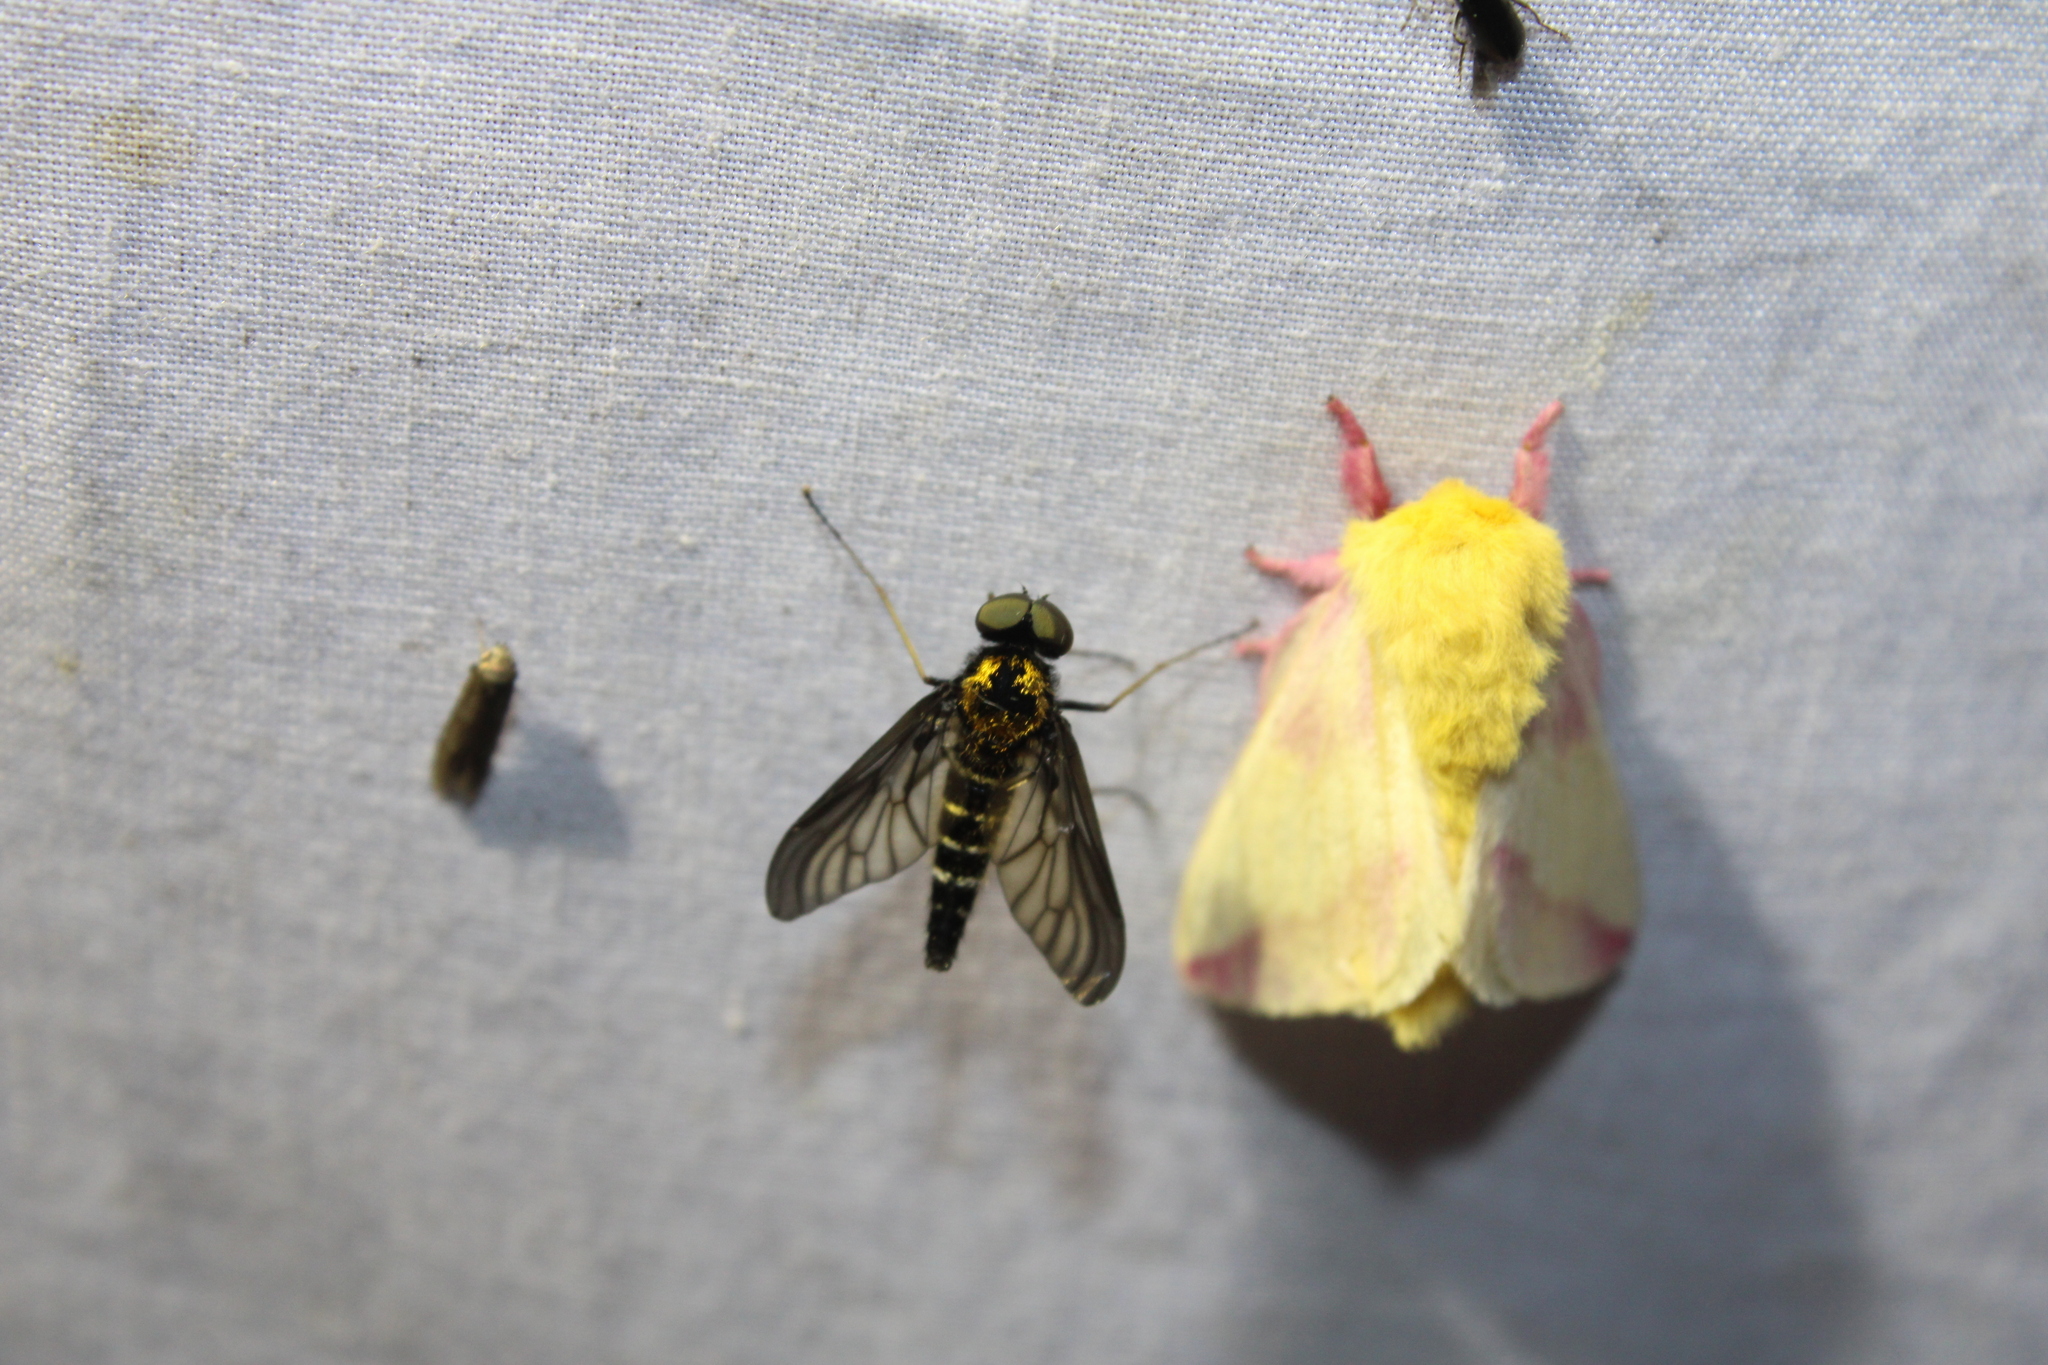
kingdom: Animalia
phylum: Arthropoda
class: Insecta
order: Diptera
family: Rhagionidae
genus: Chrysopilus
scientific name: Chrysopilus thoracicus
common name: Golden-backed snipe fly
